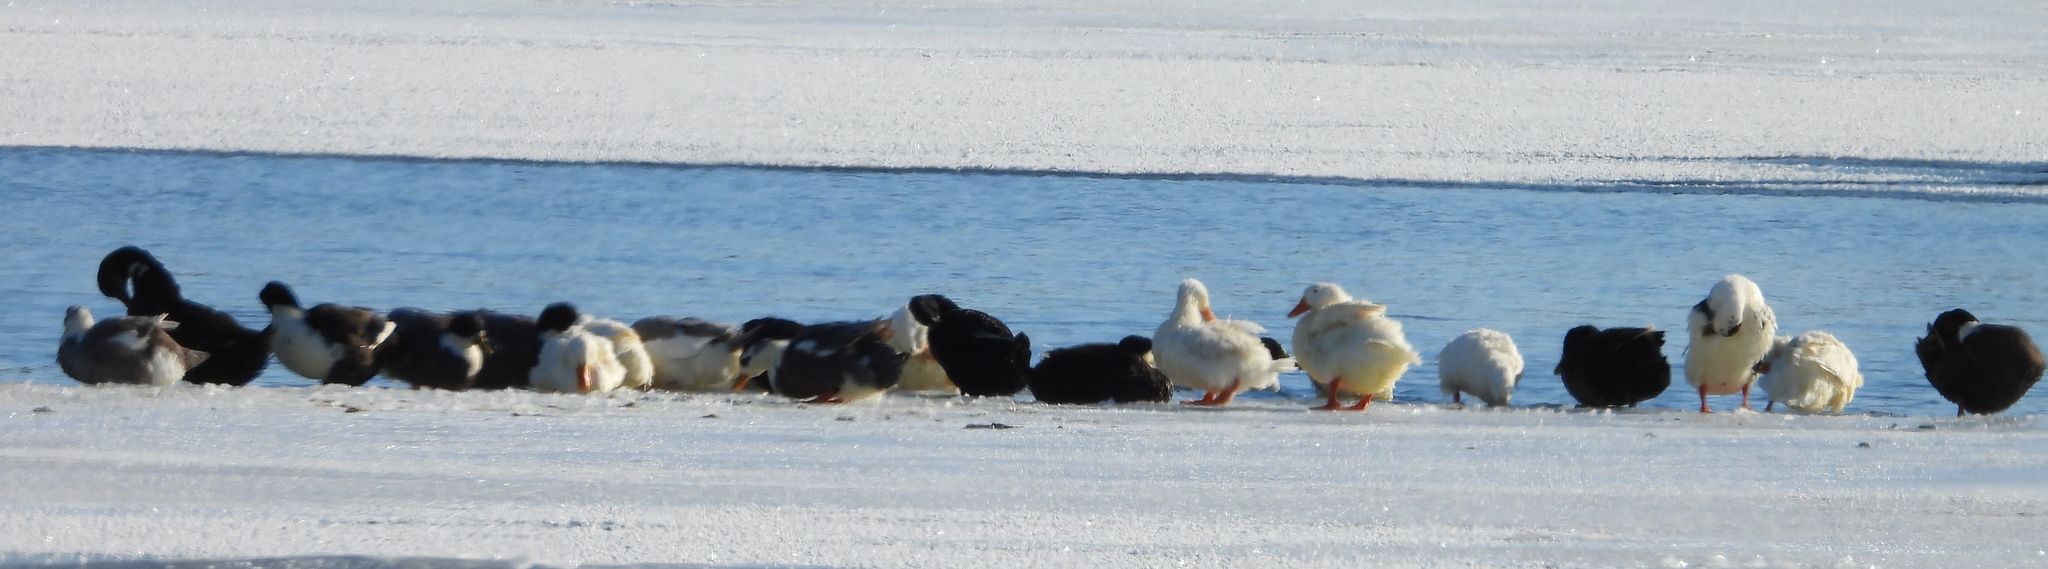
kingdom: Animalia
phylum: Chordata
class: Aves
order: Anseriformes
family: Anatidae
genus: Anas
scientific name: Anas platyrhynchos
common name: Mallard
